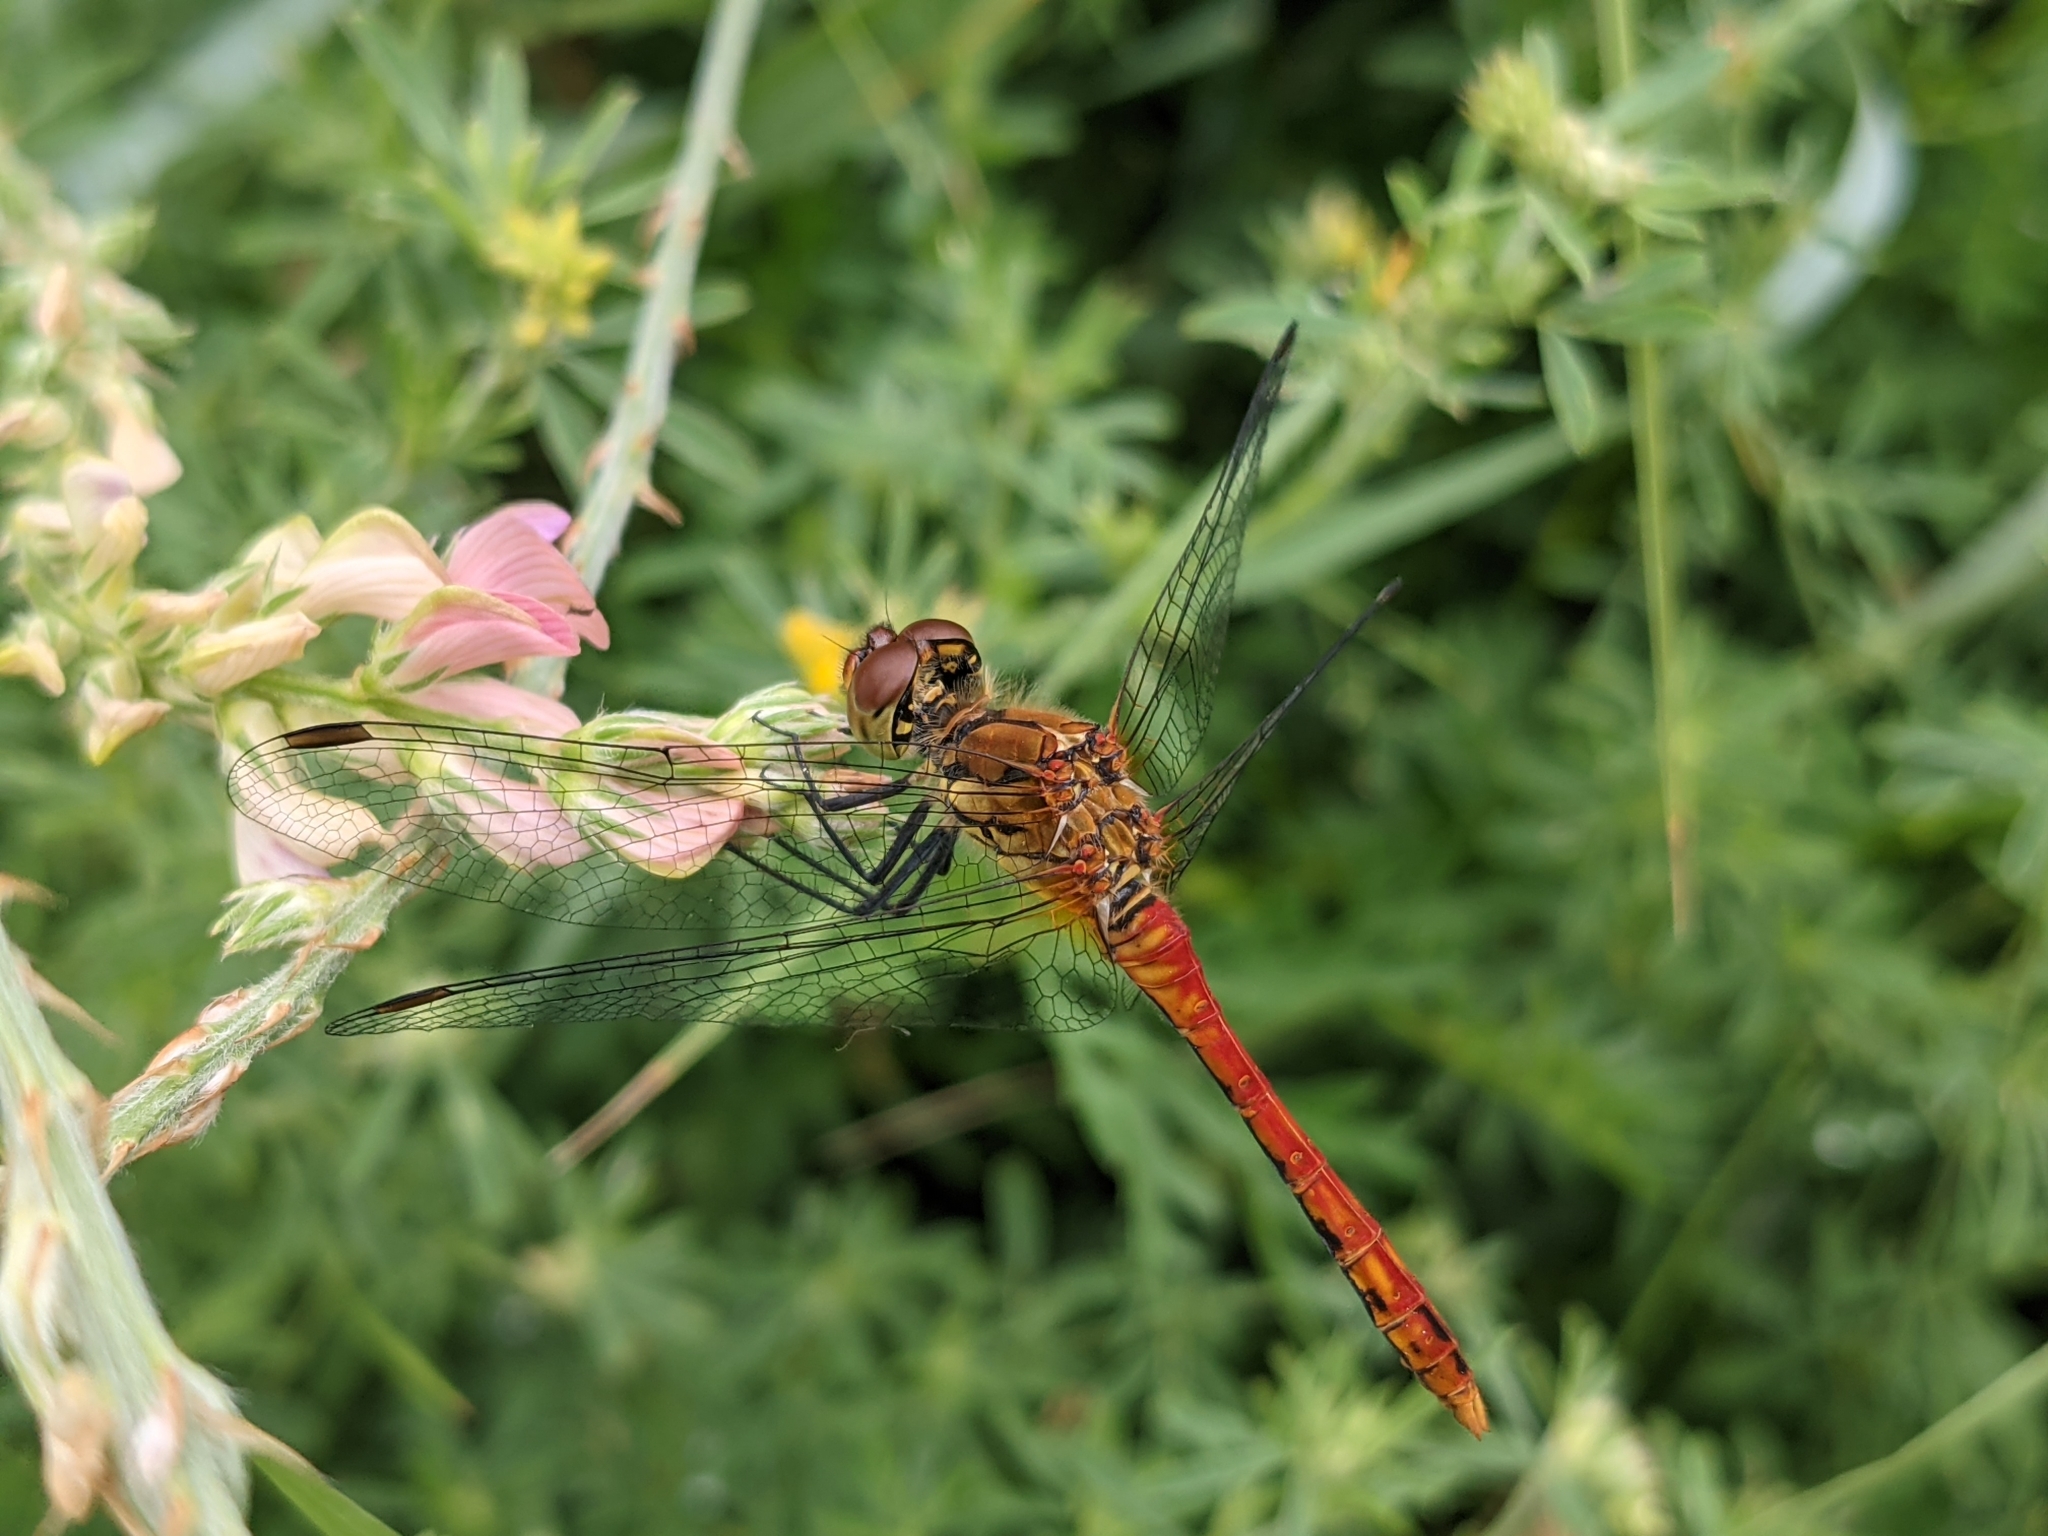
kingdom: Animalia
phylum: Arthropoda
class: Insecta
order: Odonata
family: Libellulidae
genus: Sympetrum
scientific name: Sympetrum sanguineum
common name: Ruddy darter
